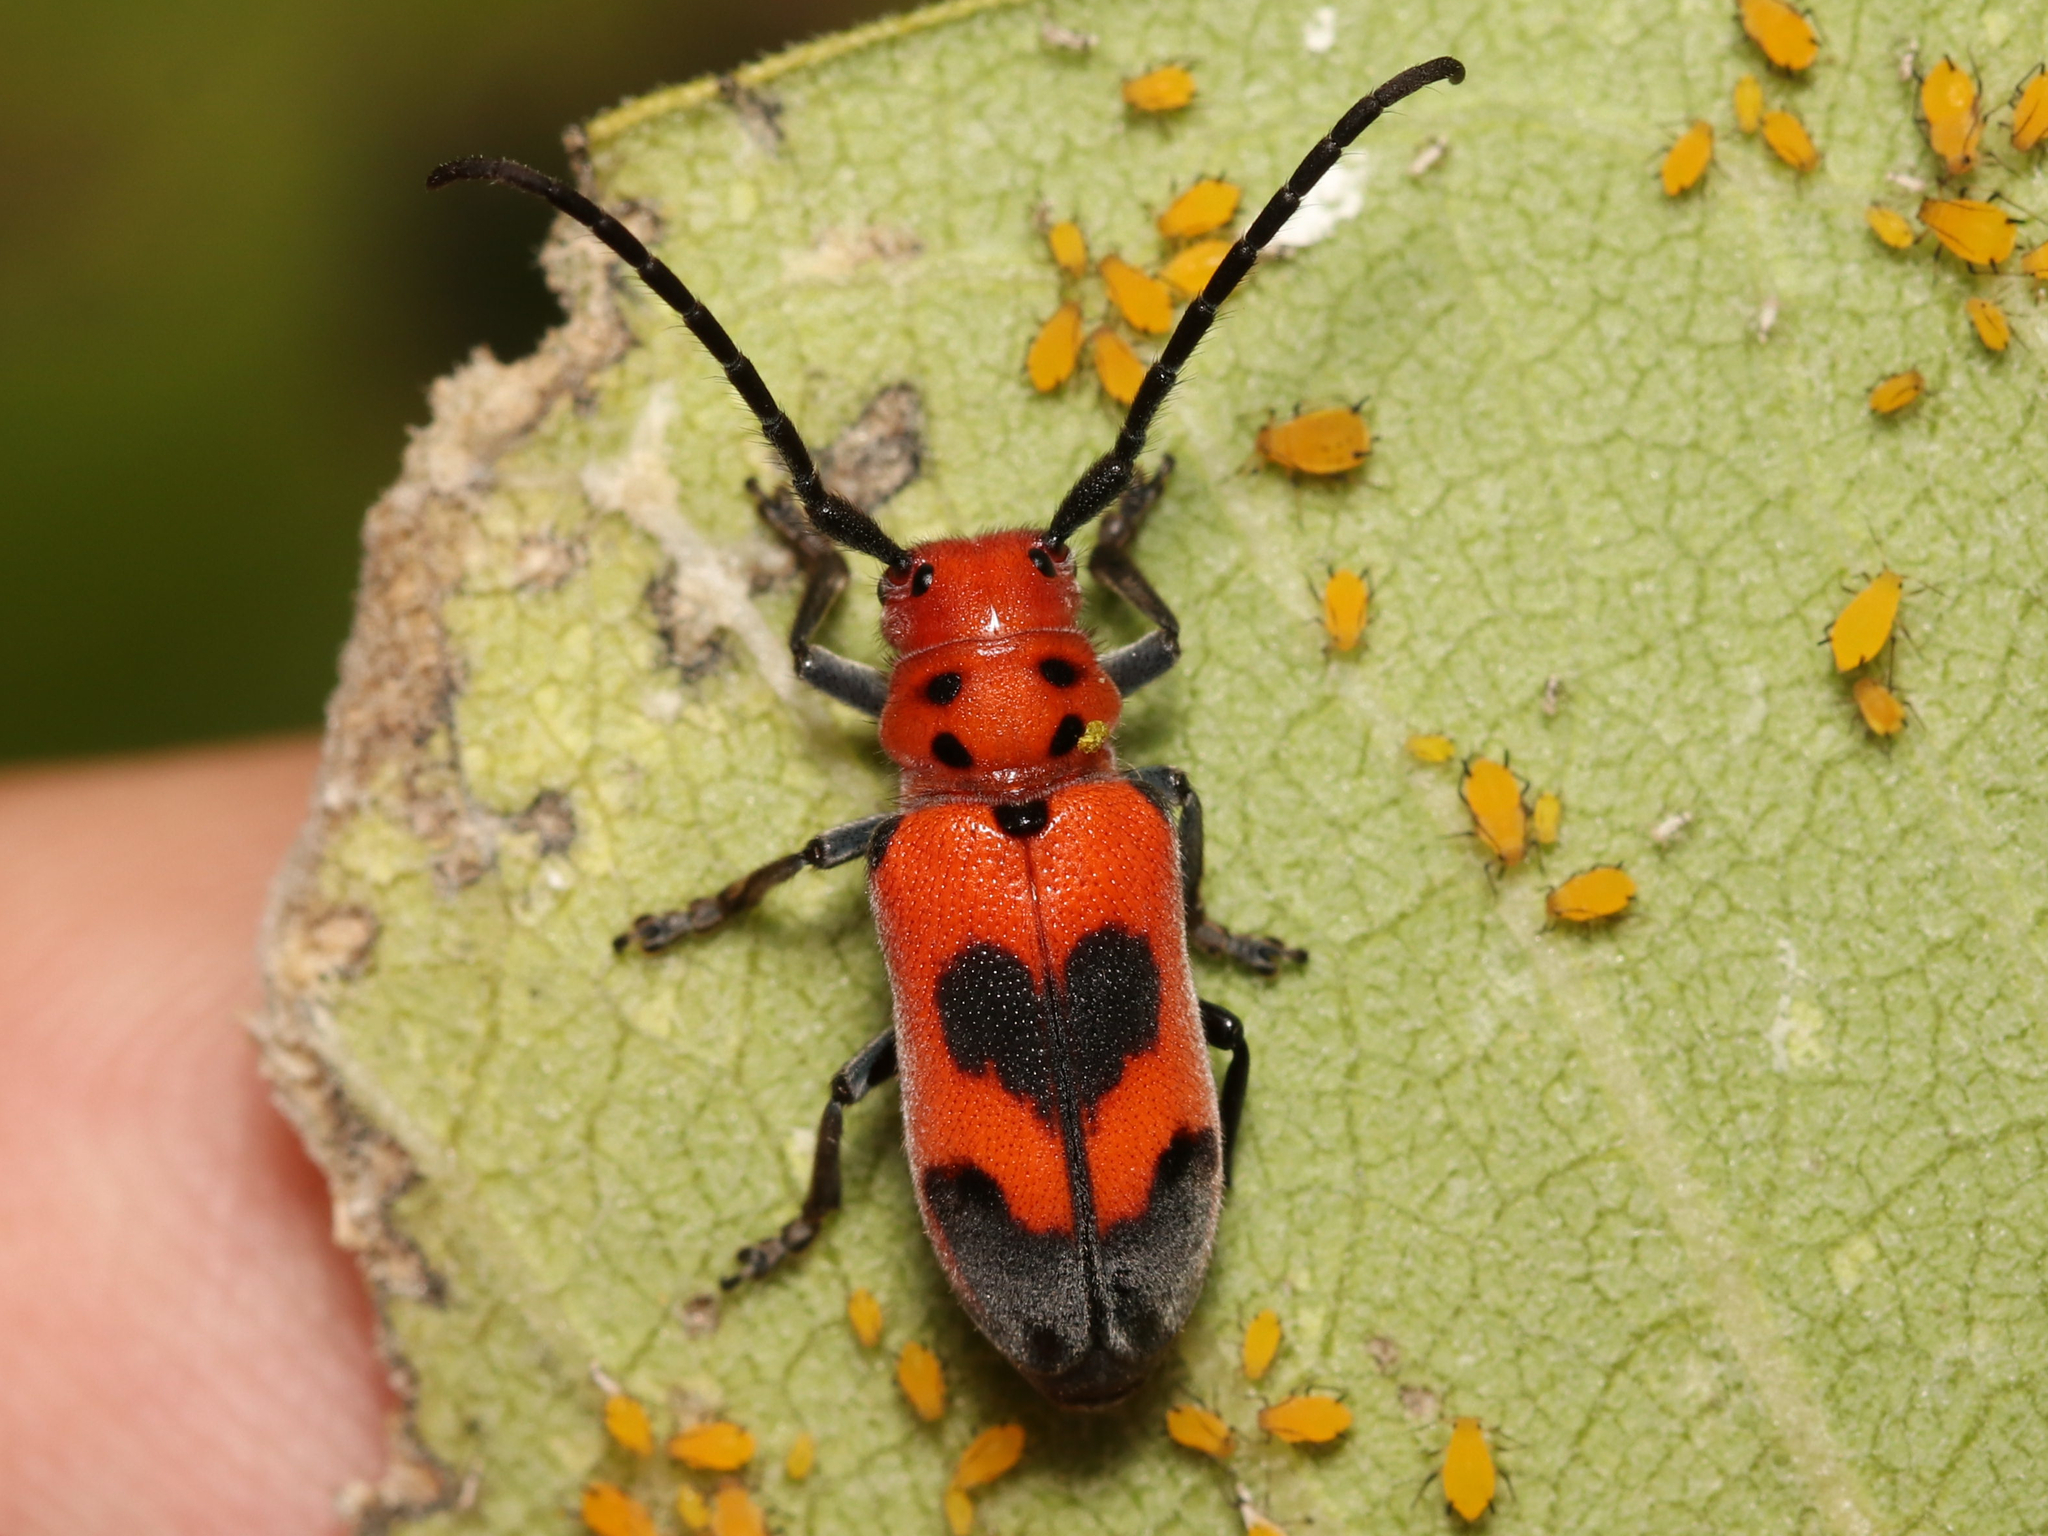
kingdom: Animalia
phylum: Arthropoda
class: Insecta
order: Coleoptera
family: Cerambycidae
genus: Tetraopes
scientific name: Tetraopes melanurus
